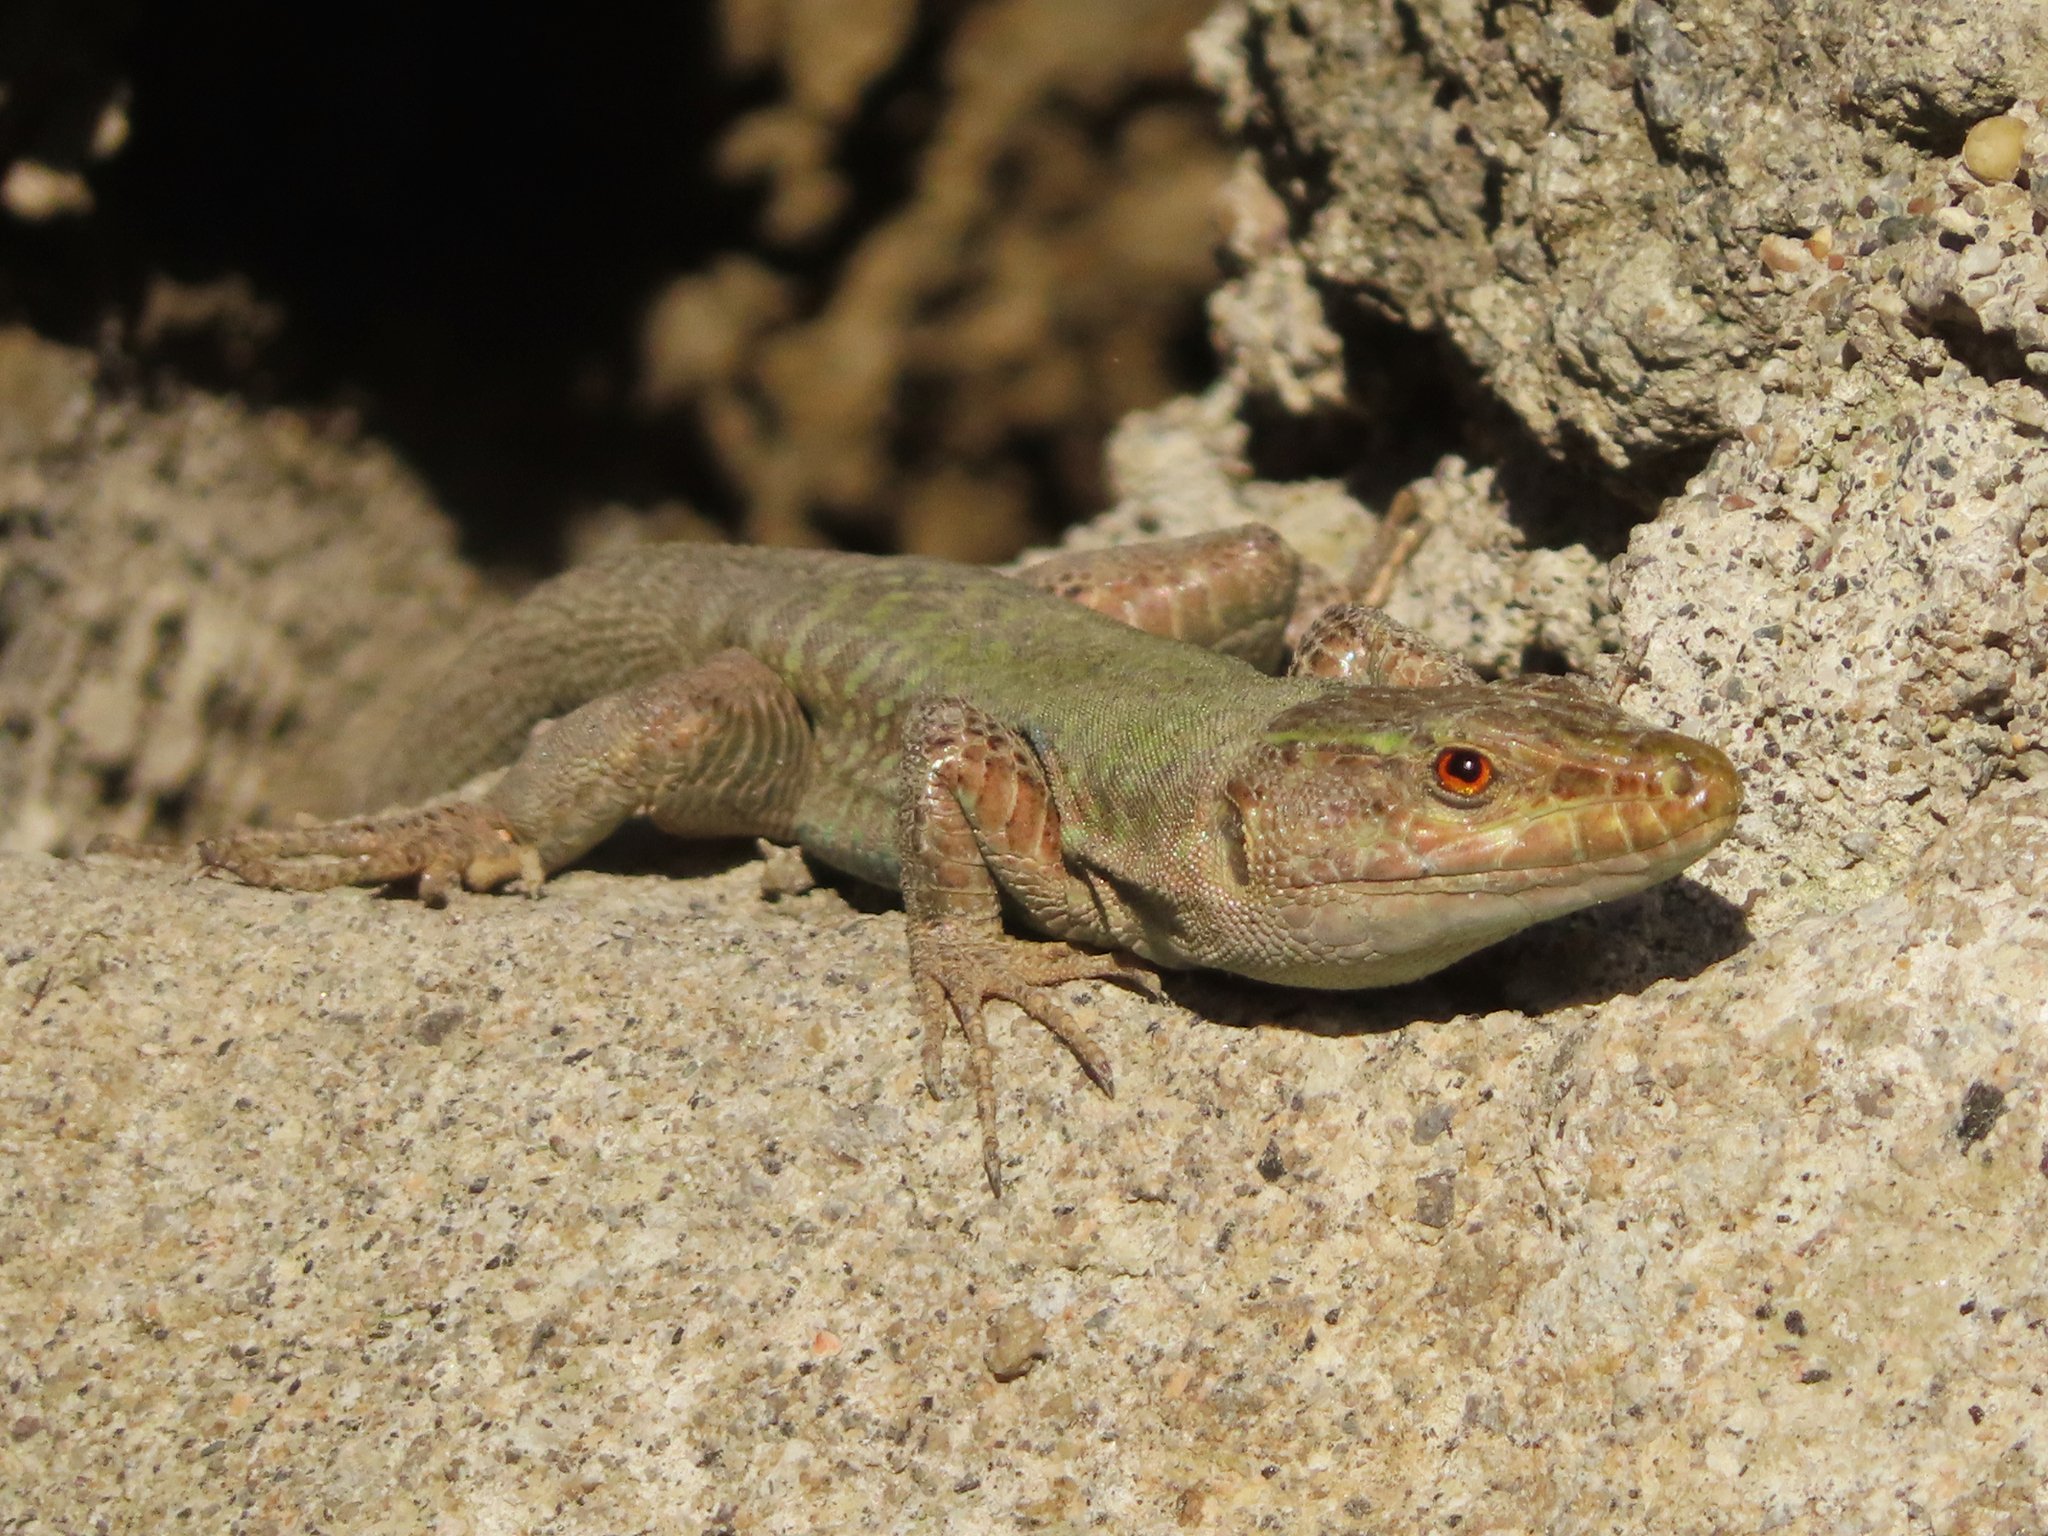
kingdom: Animalia
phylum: Chordata
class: Squamata
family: Lacertidae
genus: Podarcis
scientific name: Podarcis siculus
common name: Italian wall lizard
